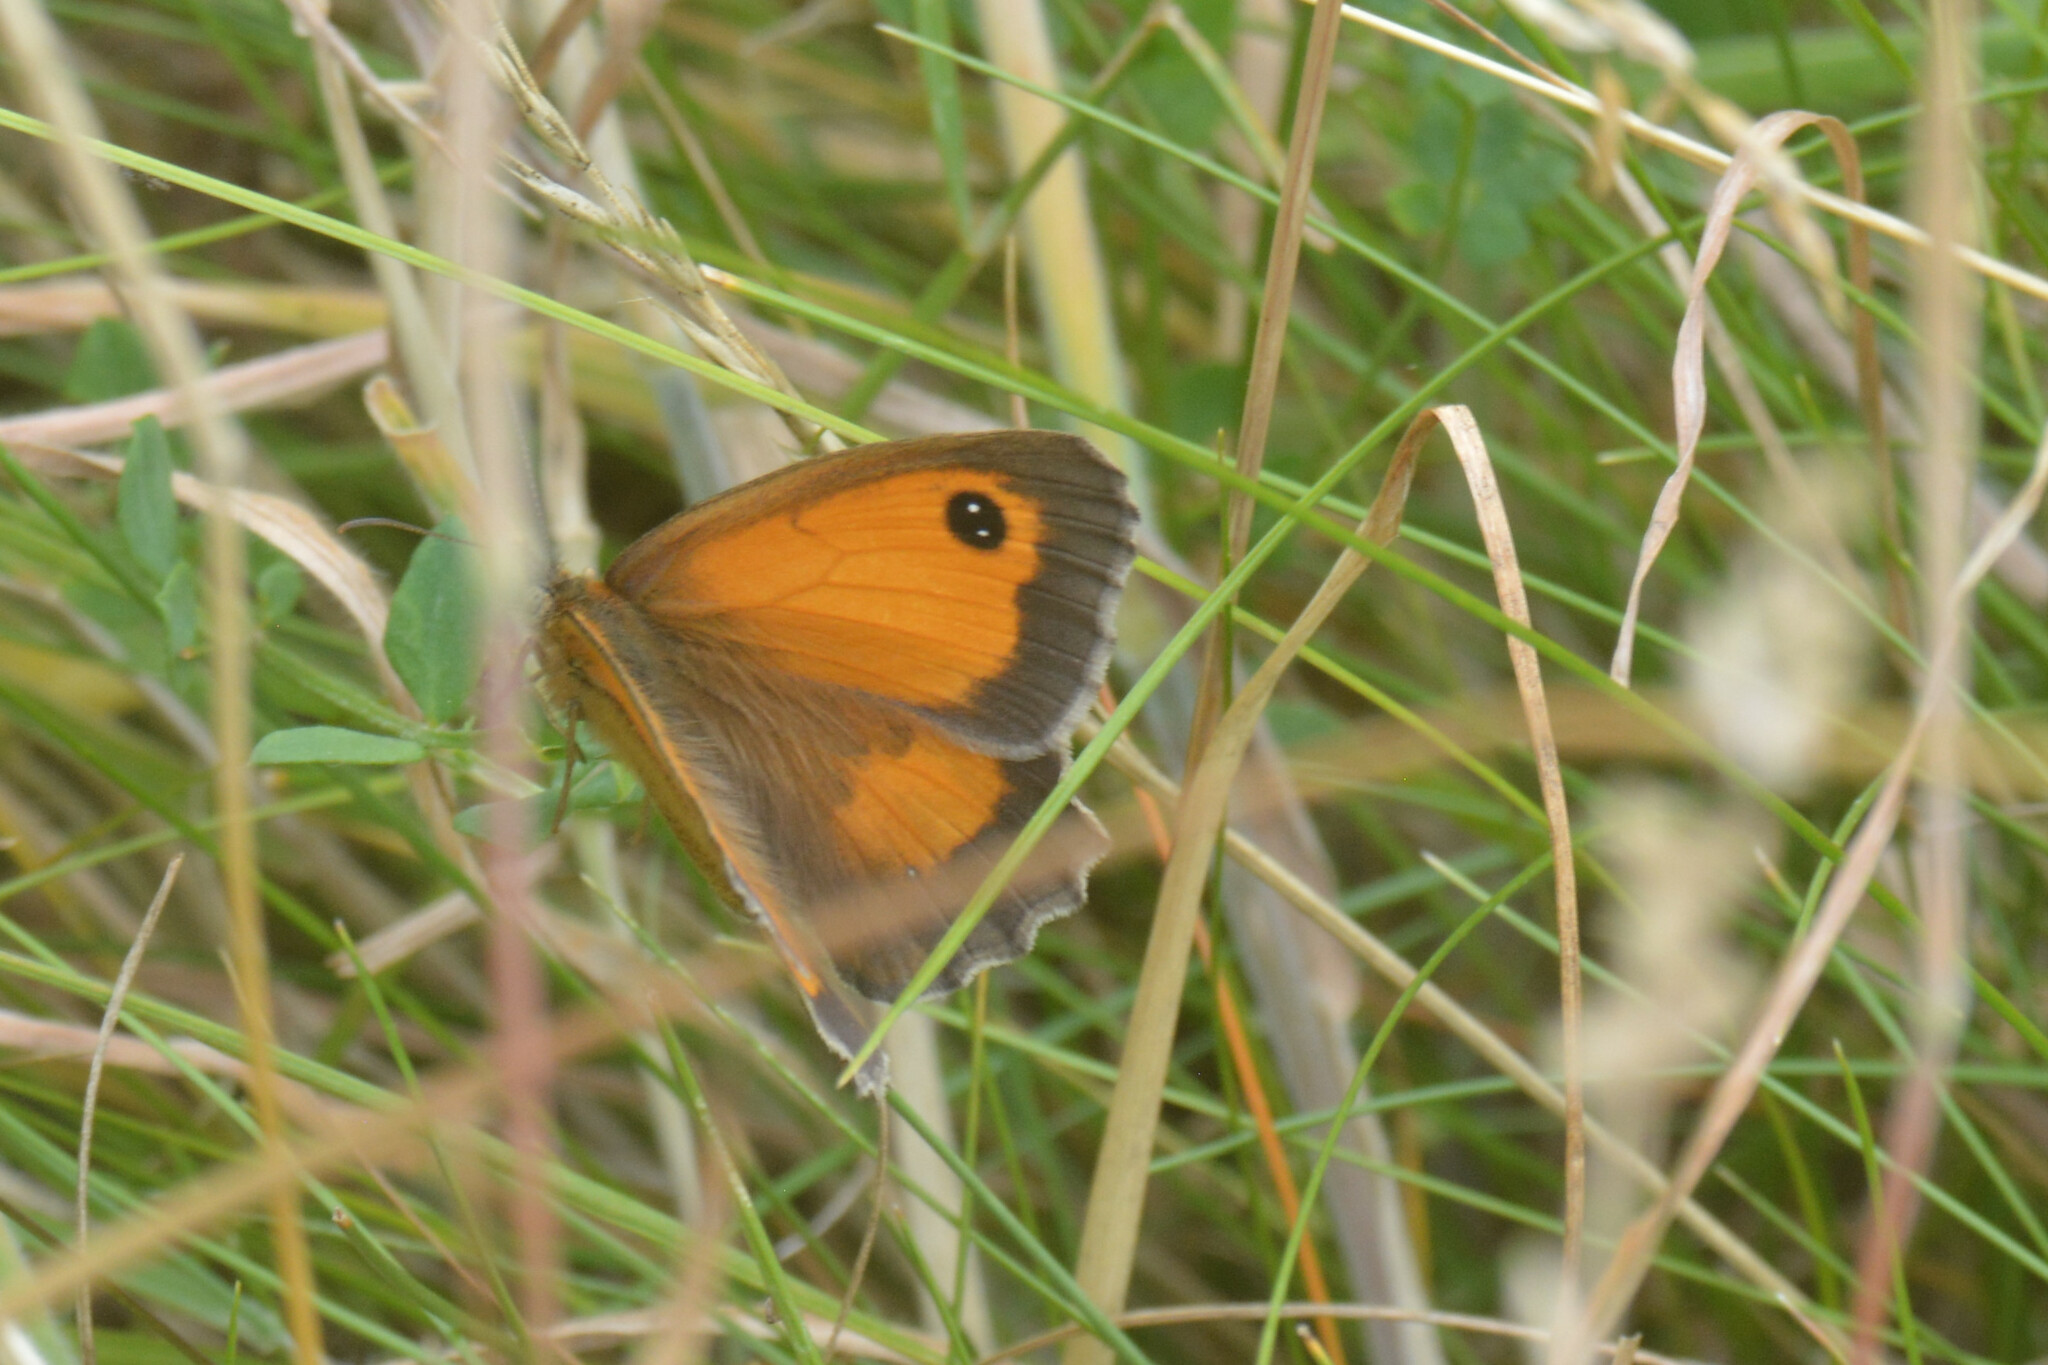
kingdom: Animalia
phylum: Arthropoda
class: Insecta
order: Lepidoptera
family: Nymphalidae
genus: Pyronia
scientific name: Pyronia tithonus
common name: Gatekeeper
